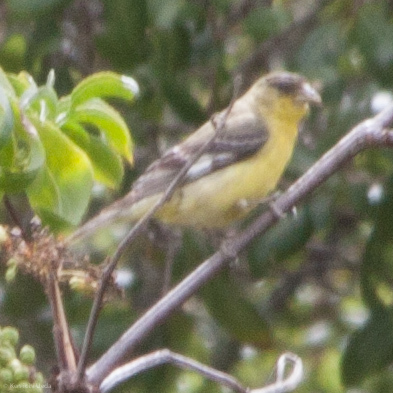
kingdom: Animalia
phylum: Chordata
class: Aves
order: Passeriformes
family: Fringillidae
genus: Spinus
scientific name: Spinus psaltria
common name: Lesser goldfinch
